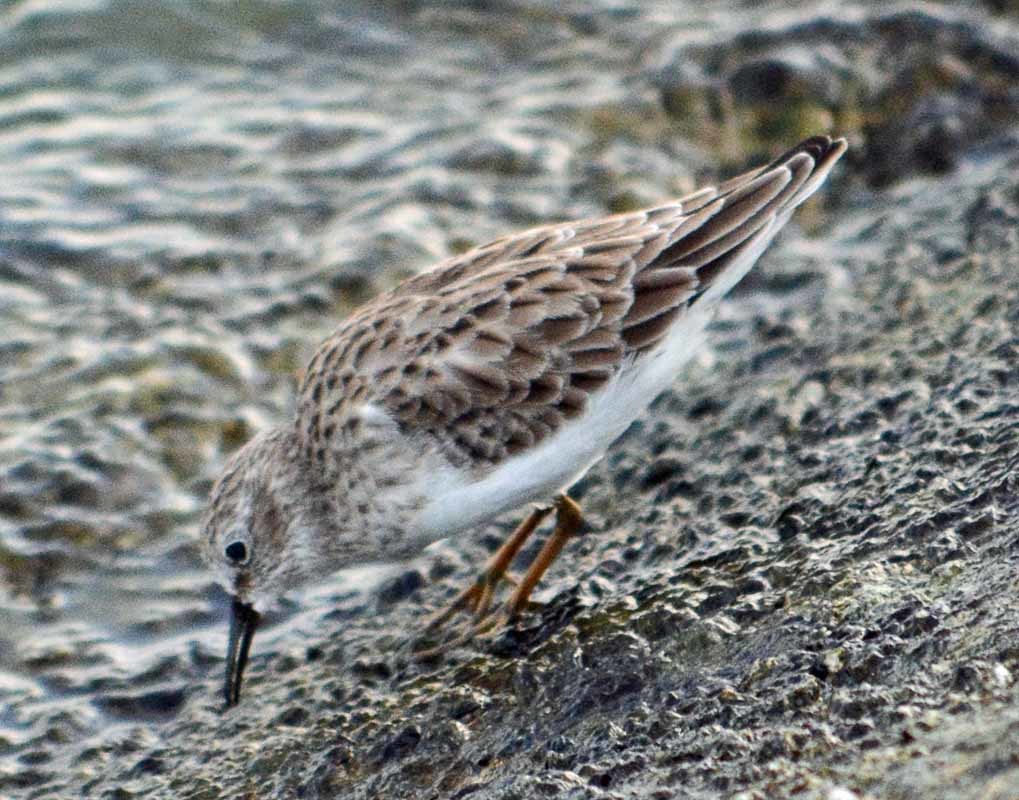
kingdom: Animalia
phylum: Chordata
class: Aves
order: Charadriiformes
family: Scolopacidae
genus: Calidris
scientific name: Calidris minutilla
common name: Least sandpiper
